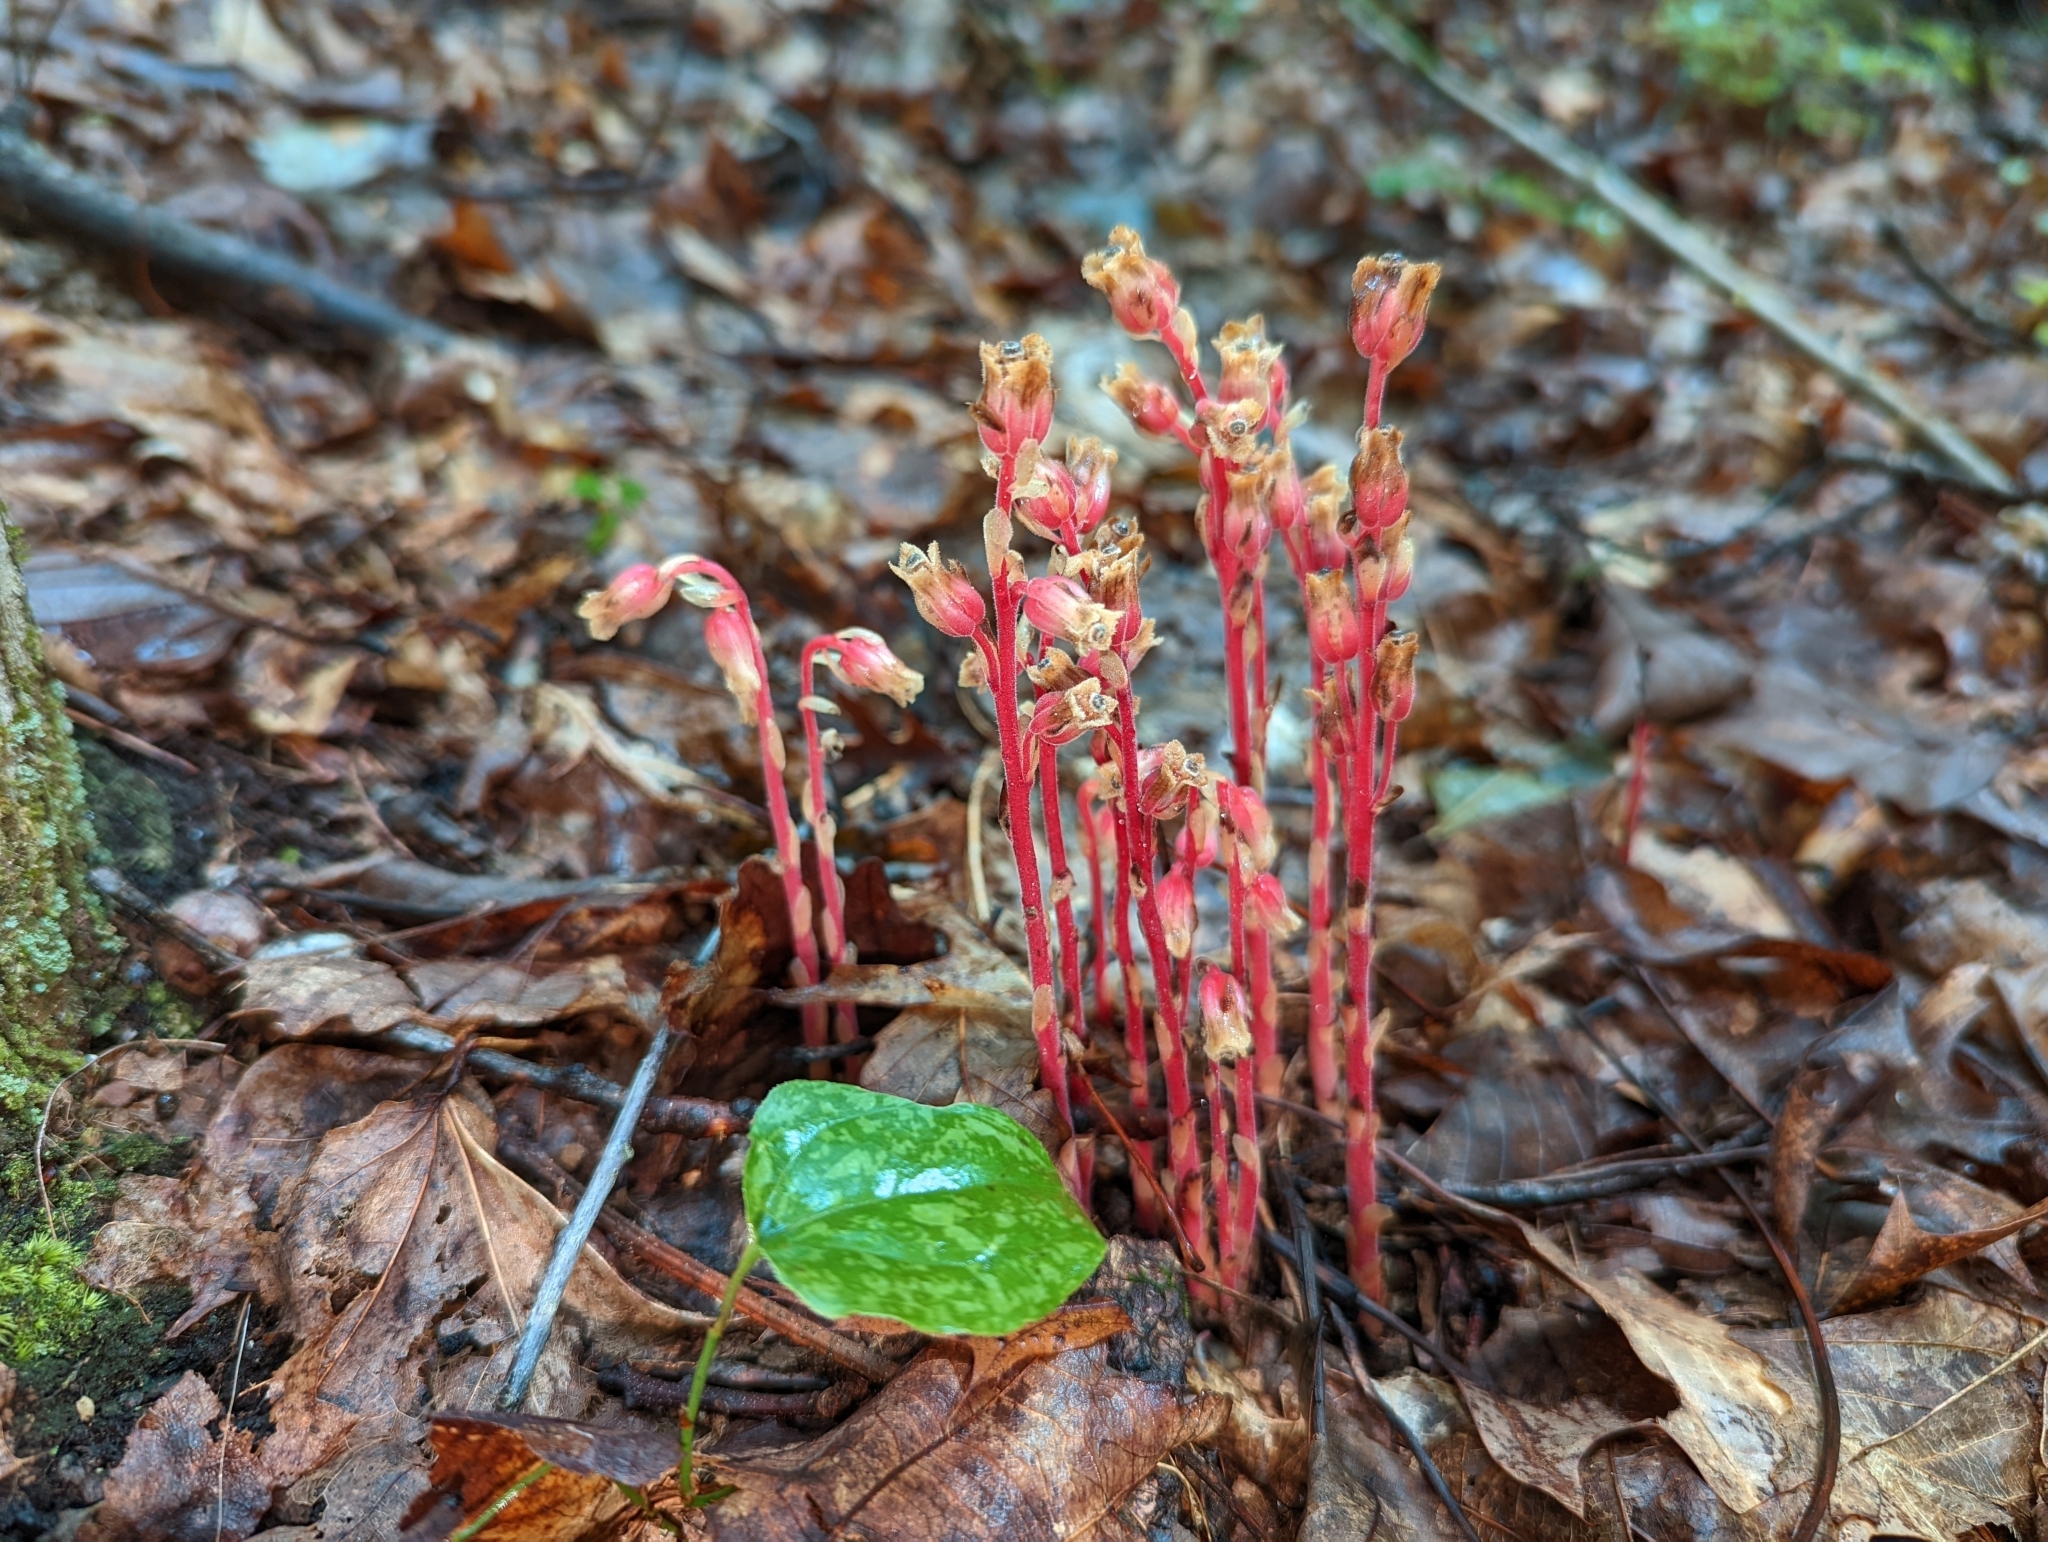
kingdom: Plantae
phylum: Tracheophyta
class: Magnoliopsida
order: Ericales
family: Ericaceae
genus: Hypopitys
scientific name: Hypopitys monotropa
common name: Yellow bird's-nest
